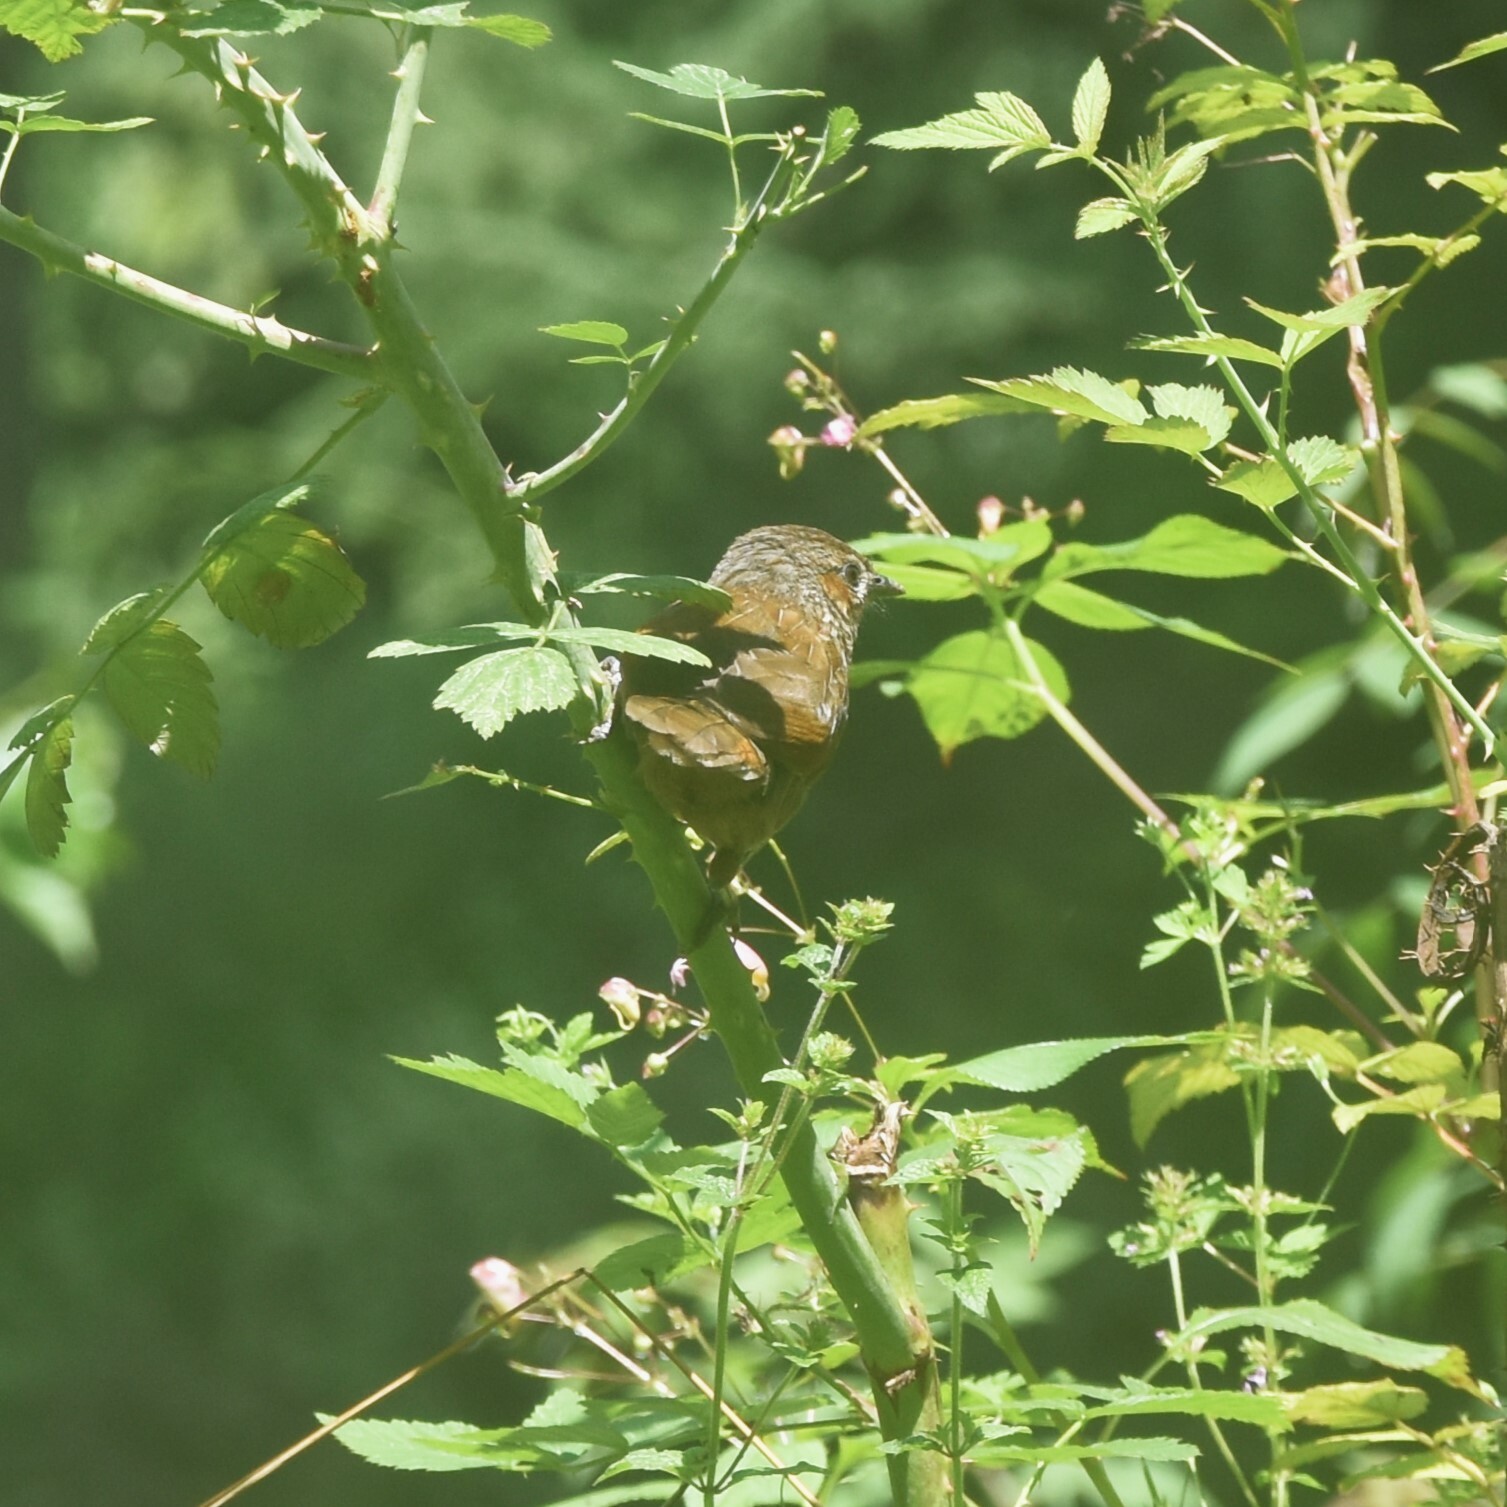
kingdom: Animalia
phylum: Chordata
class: Aves
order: Passeriformes
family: Leiothrichidae
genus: Trochalopteron
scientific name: Trochalopteron lineatum
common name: Streaked laughingthrush
